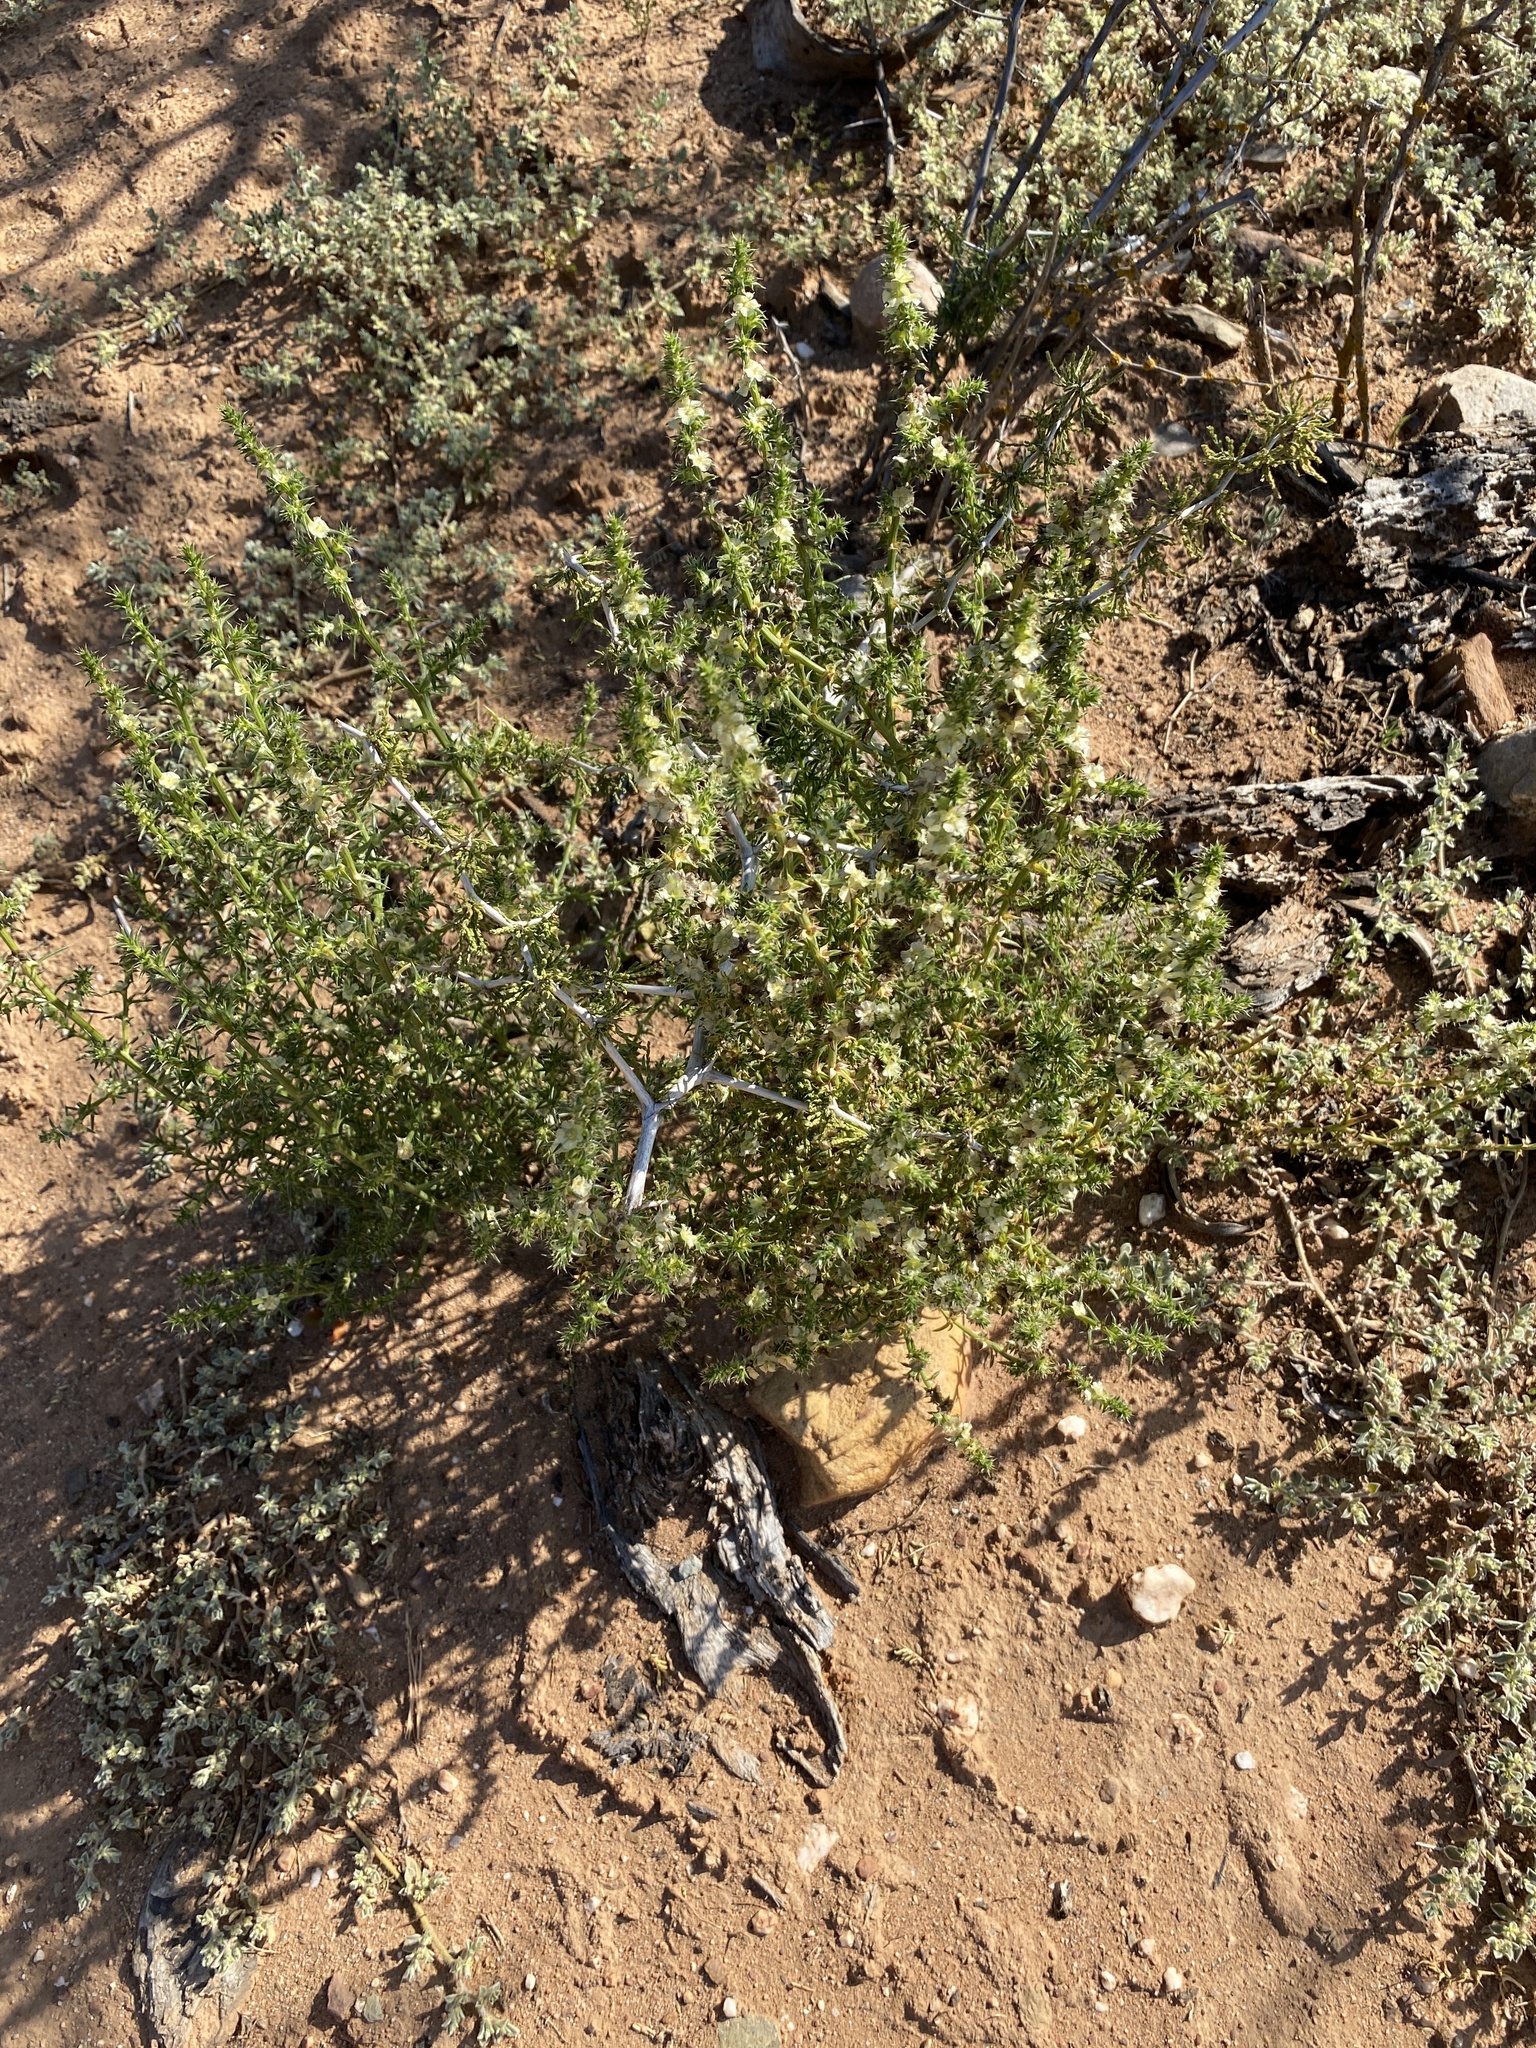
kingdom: Plantae
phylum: Tracheophyta
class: Magnoliopsida
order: Caryophyllales
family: Amaranthaceae
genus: Salsola
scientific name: Salsola kali
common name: Saltwort
